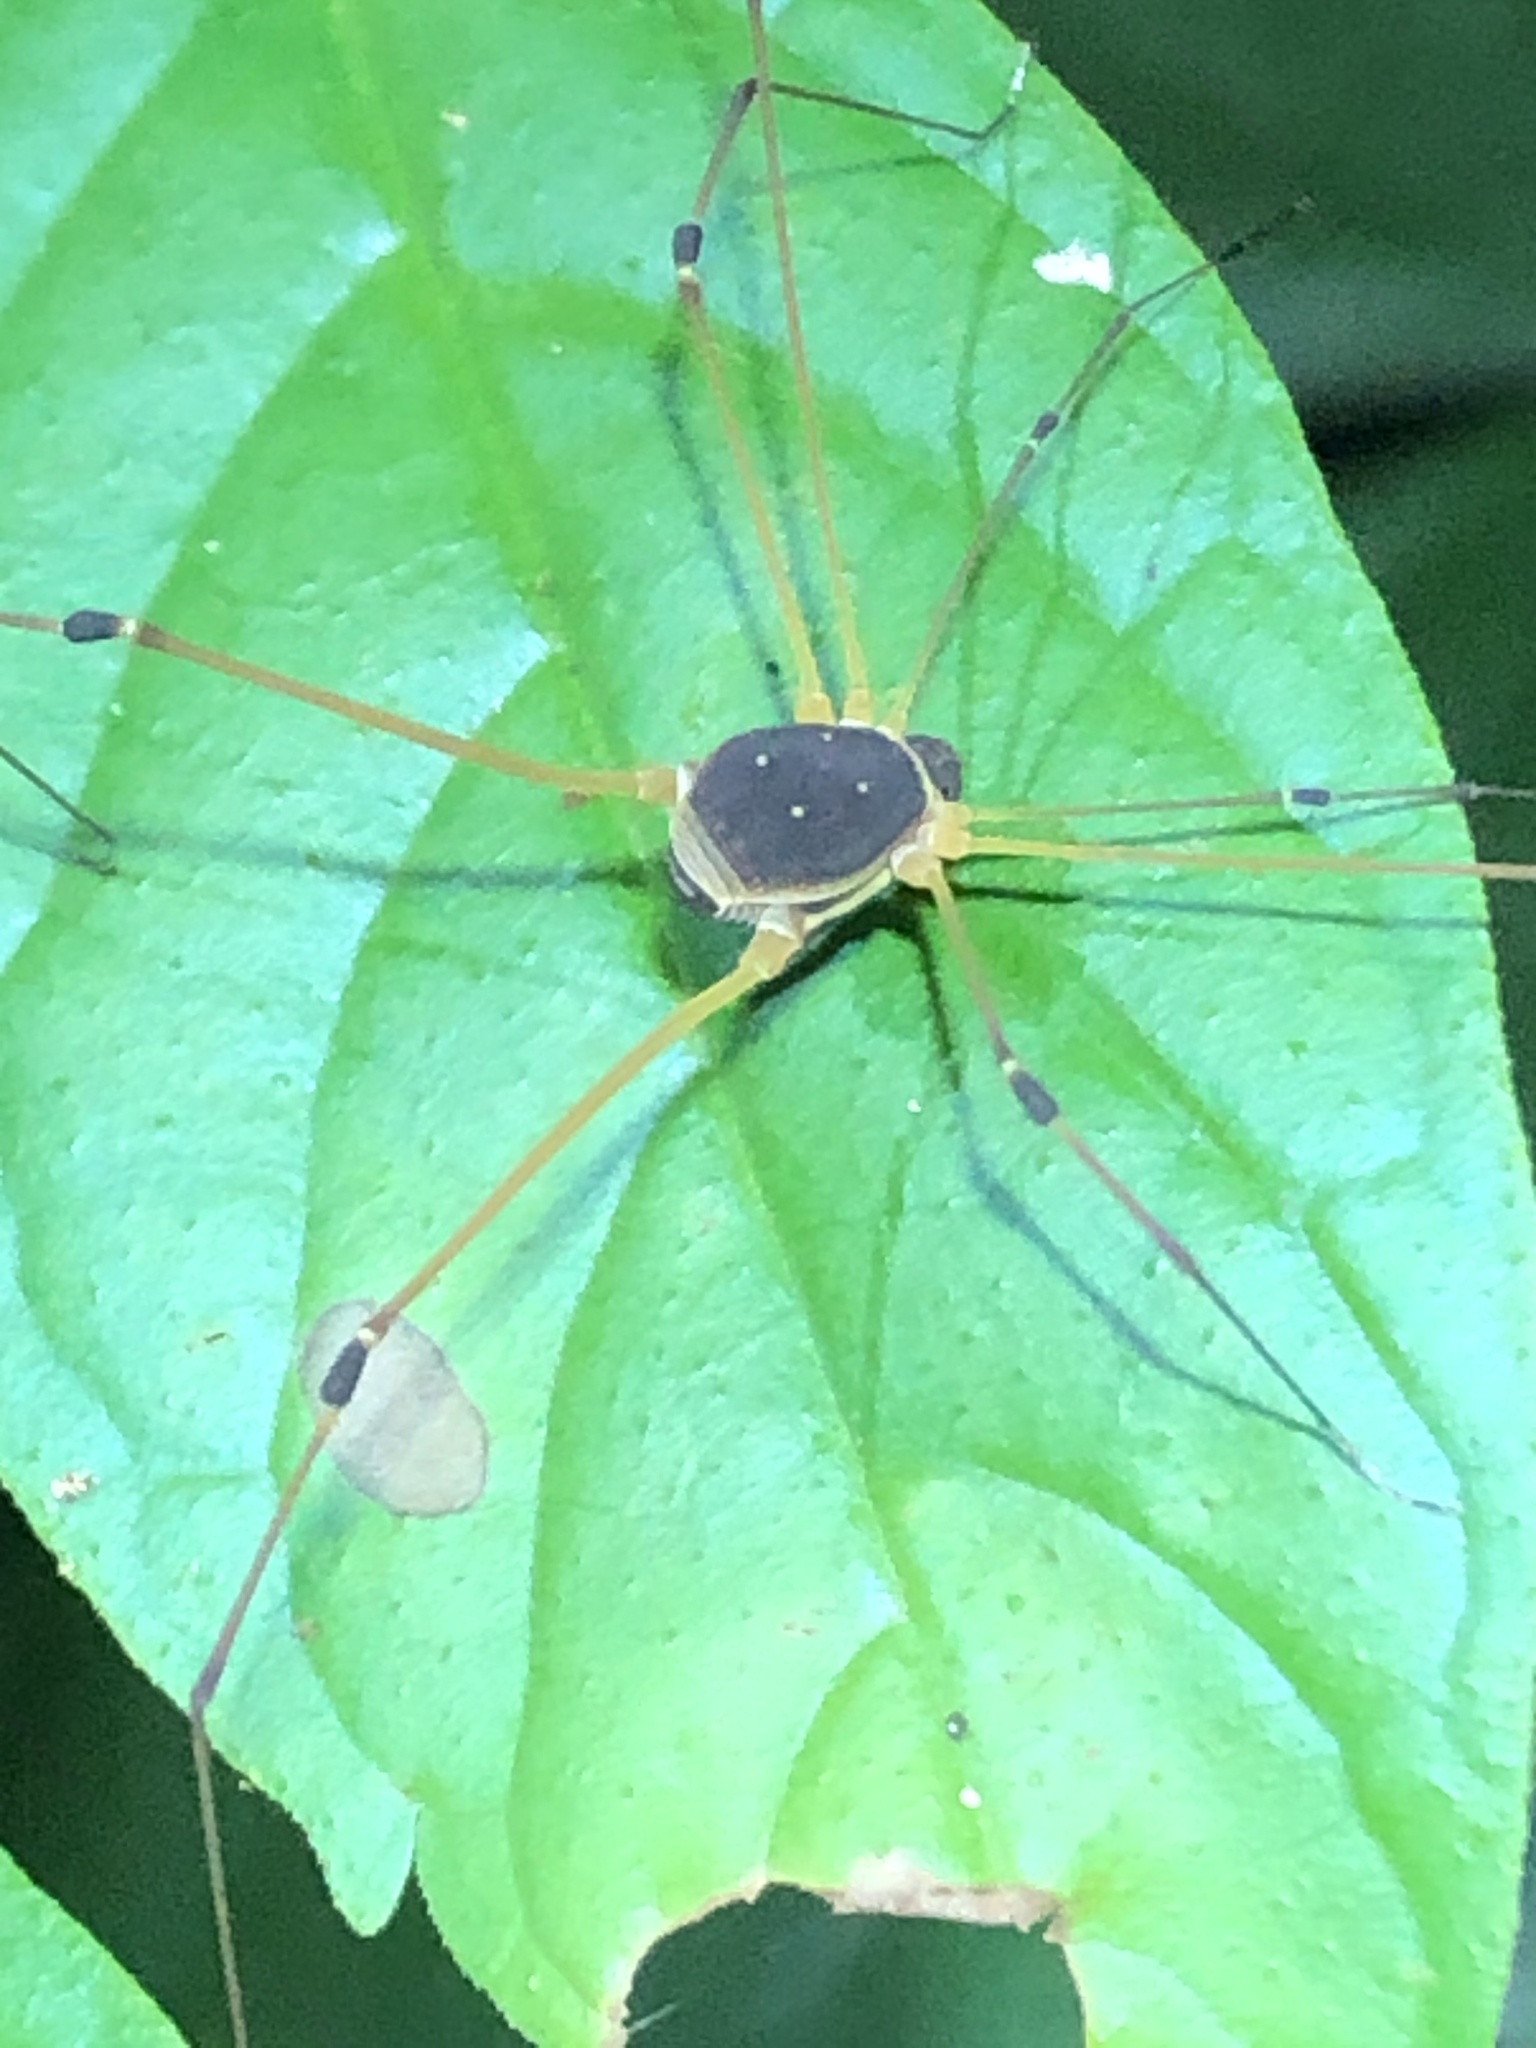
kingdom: Animalia
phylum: Arthropoda
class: Arachnida
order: Opiliones
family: Cosmetidae
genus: Protus
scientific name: Protus bolivari
